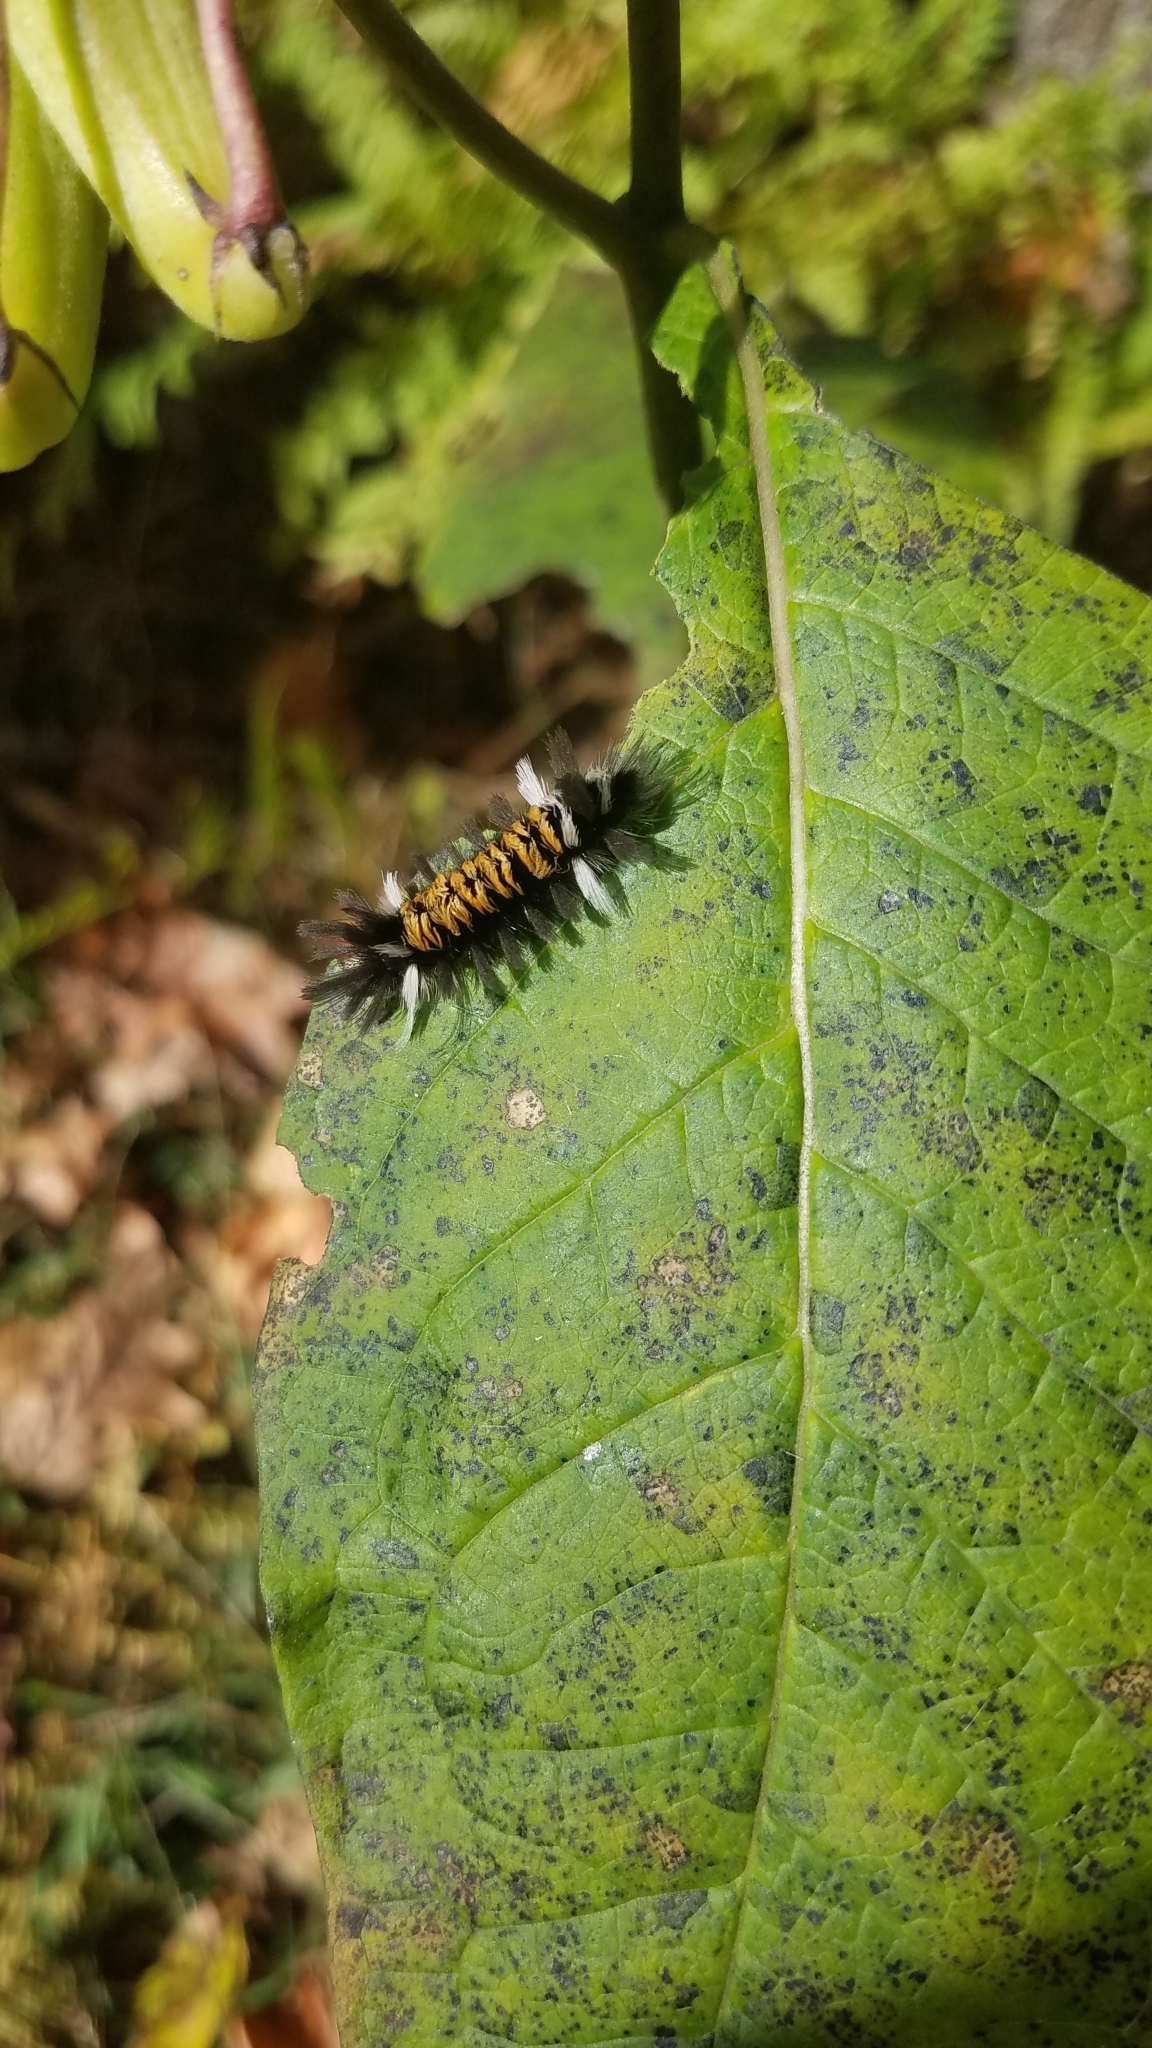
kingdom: Animalia
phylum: Arthropoda
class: Insecta
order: Lepidoptera
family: Erebidae
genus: Euchaetes
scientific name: Euchaetes egle
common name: Milkweed tussock moth
